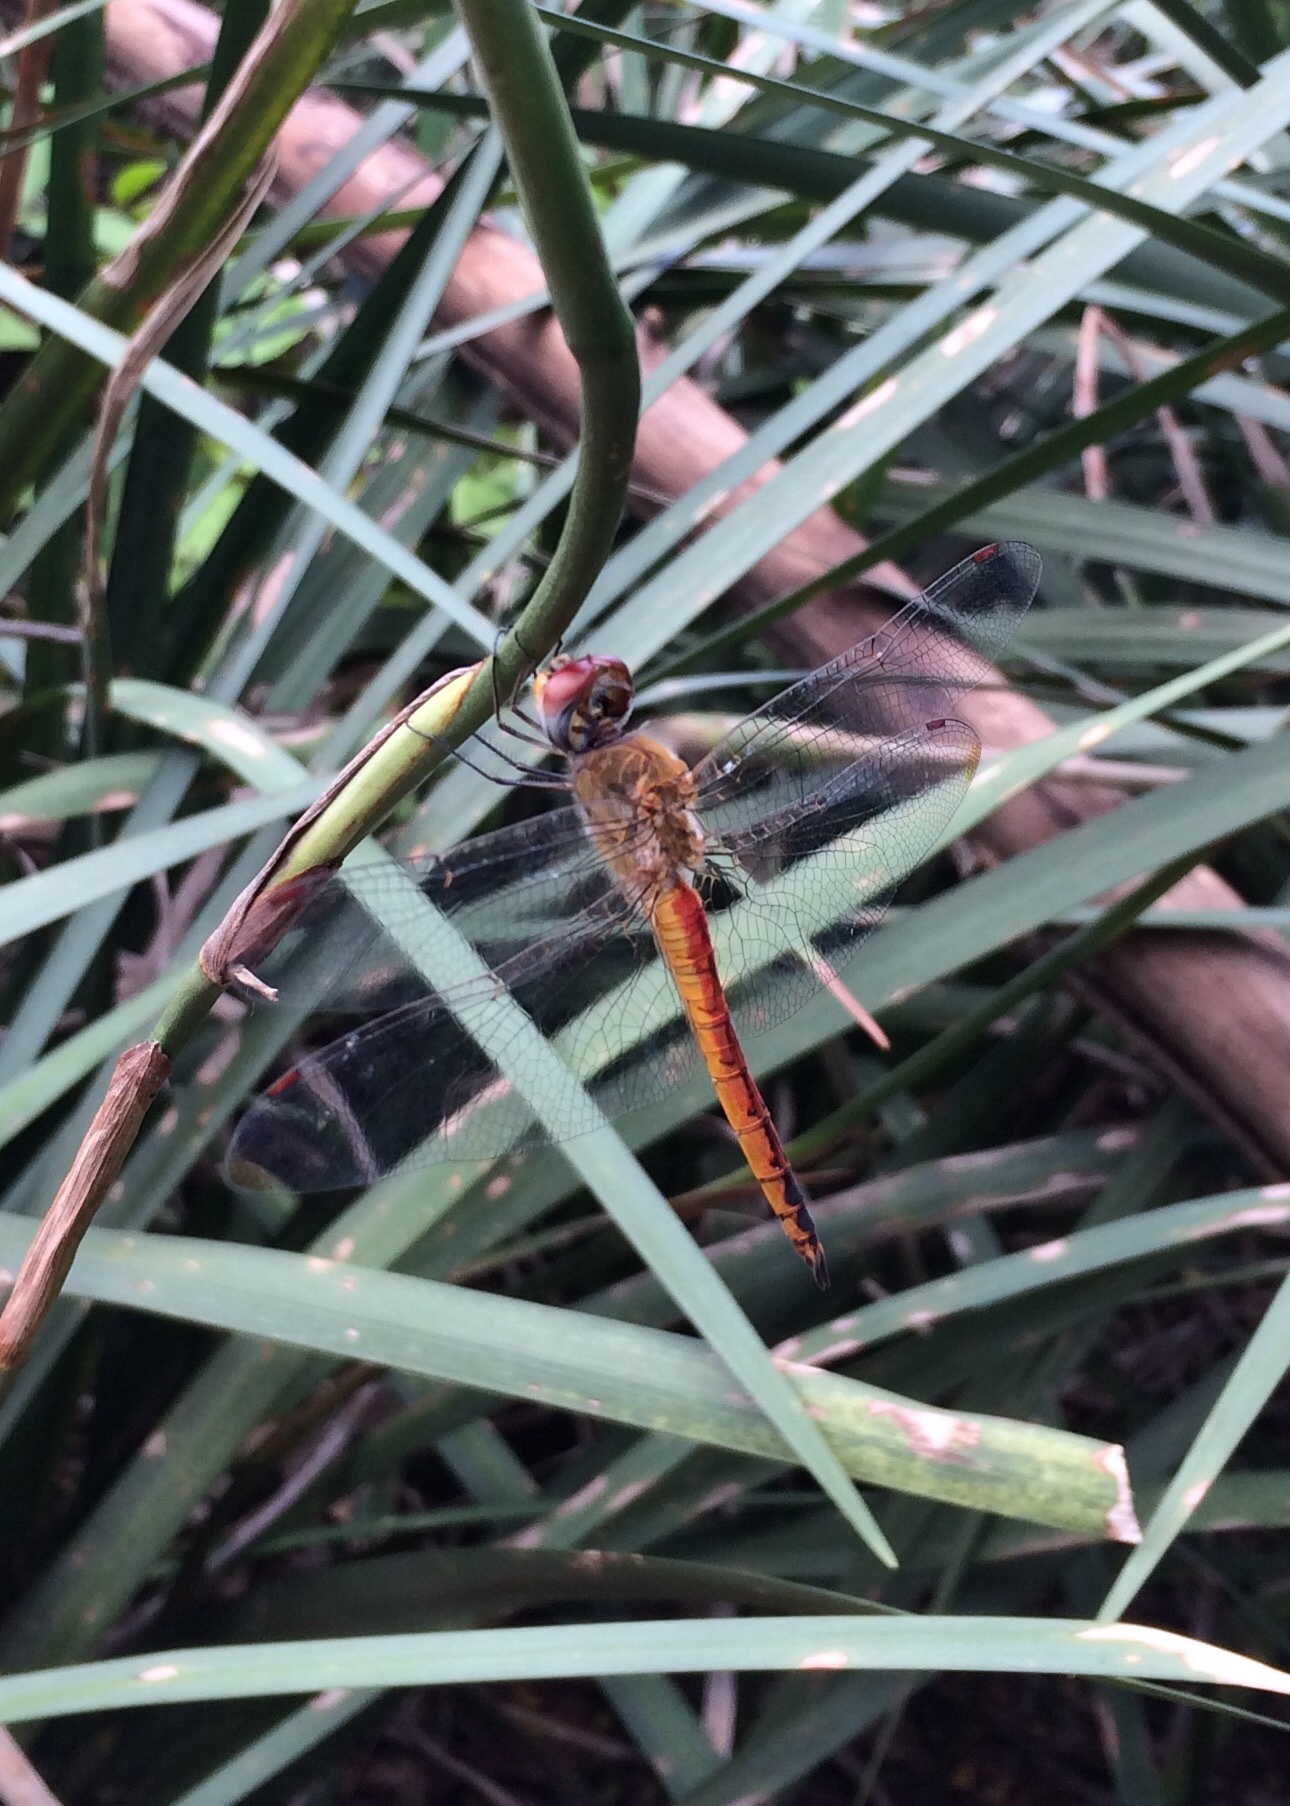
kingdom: Animalia
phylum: Arthropoda
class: Insecta
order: Odonata
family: Libellulidae
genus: Pantala
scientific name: Pantala flavescens
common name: Wandering glider
